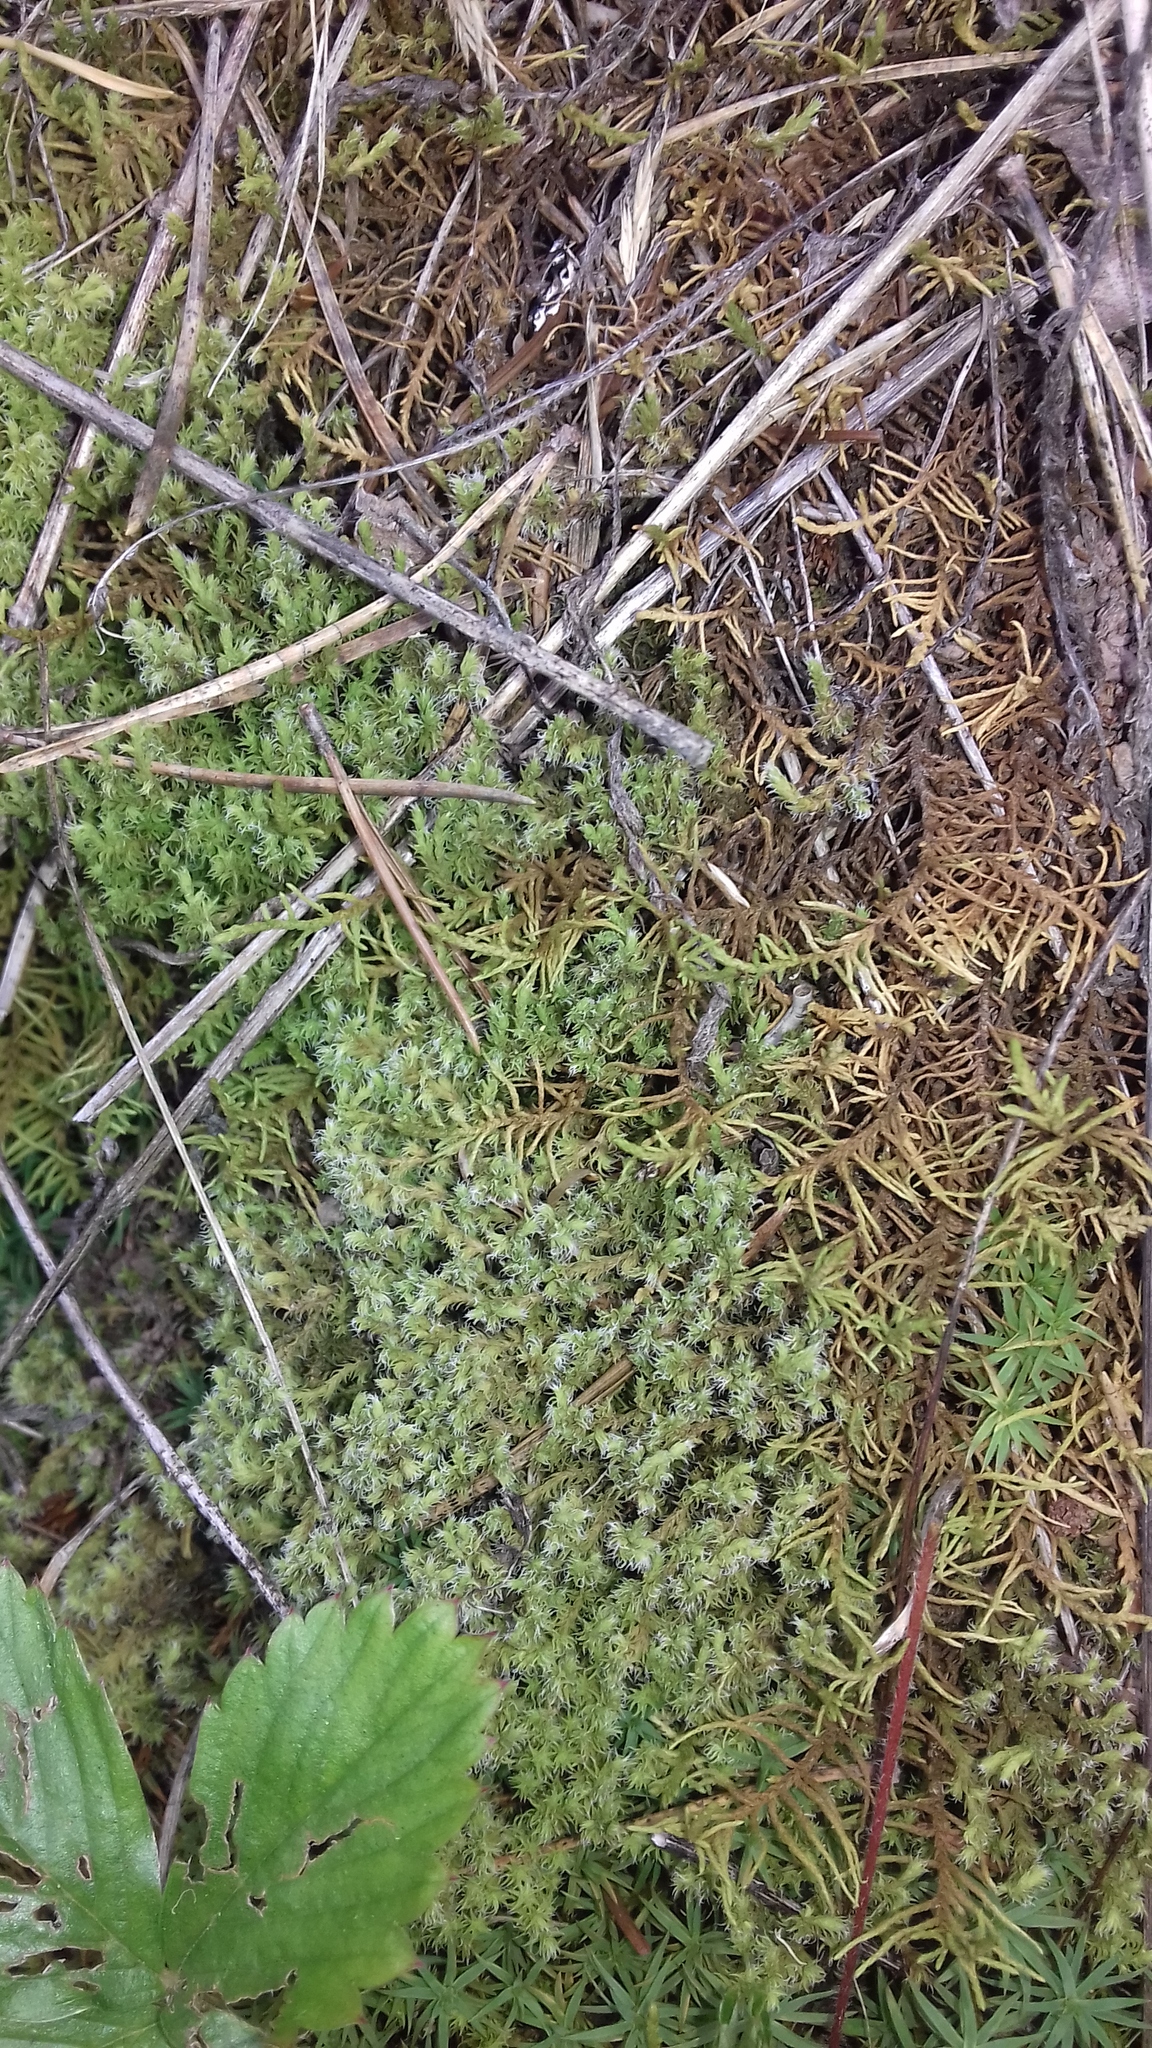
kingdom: Plantae
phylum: Bryophyta
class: Bryopsida
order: Hypnales
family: Thuidiaceae
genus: Abietinella
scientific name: Abietinella abietina
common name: Wiry fern moss
